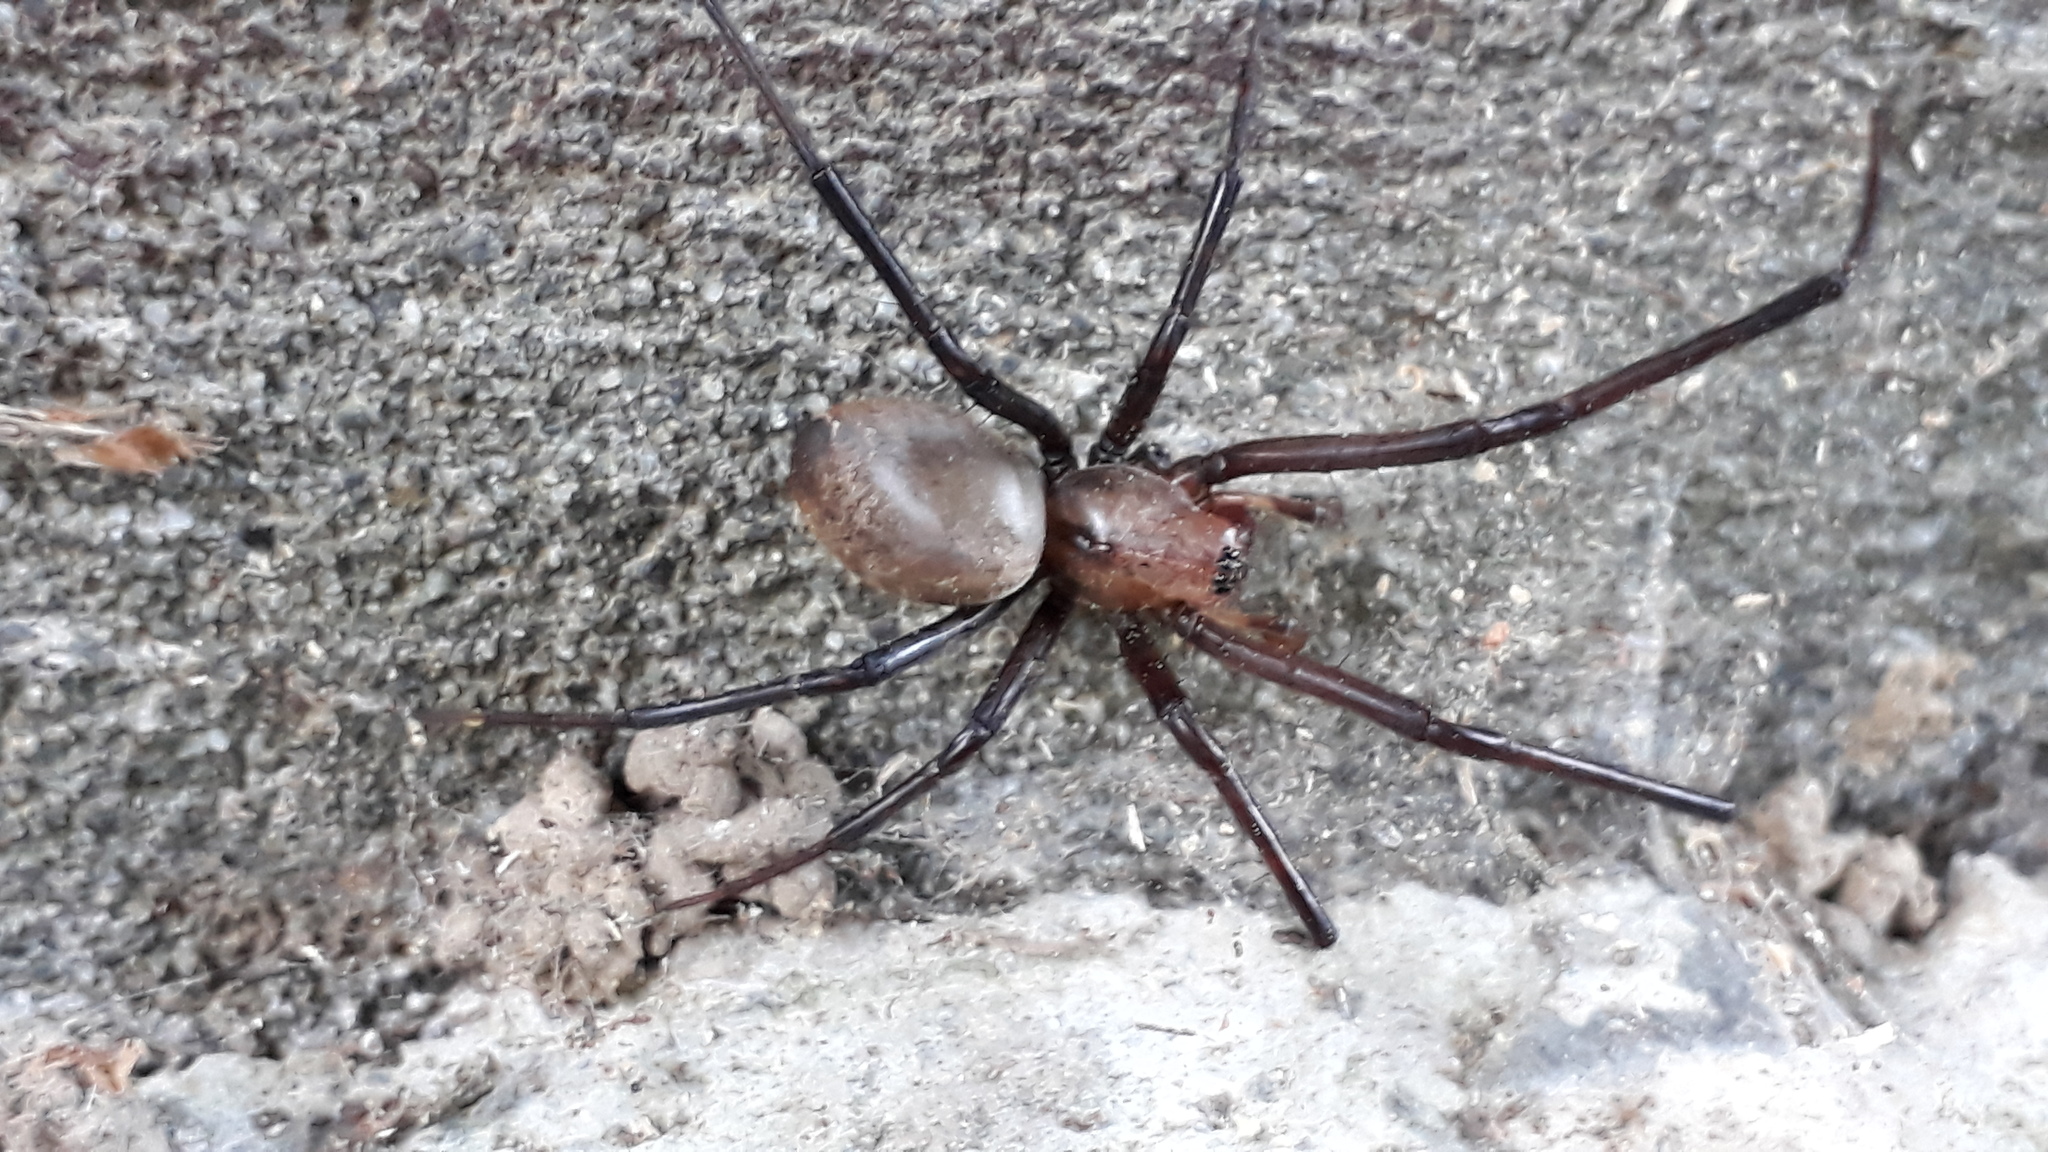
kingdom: Animalia
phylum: Arthropoda
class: Arachnida
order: Araneae
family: Desidae
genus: Cambridgea
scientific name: Cambridgea foliata
